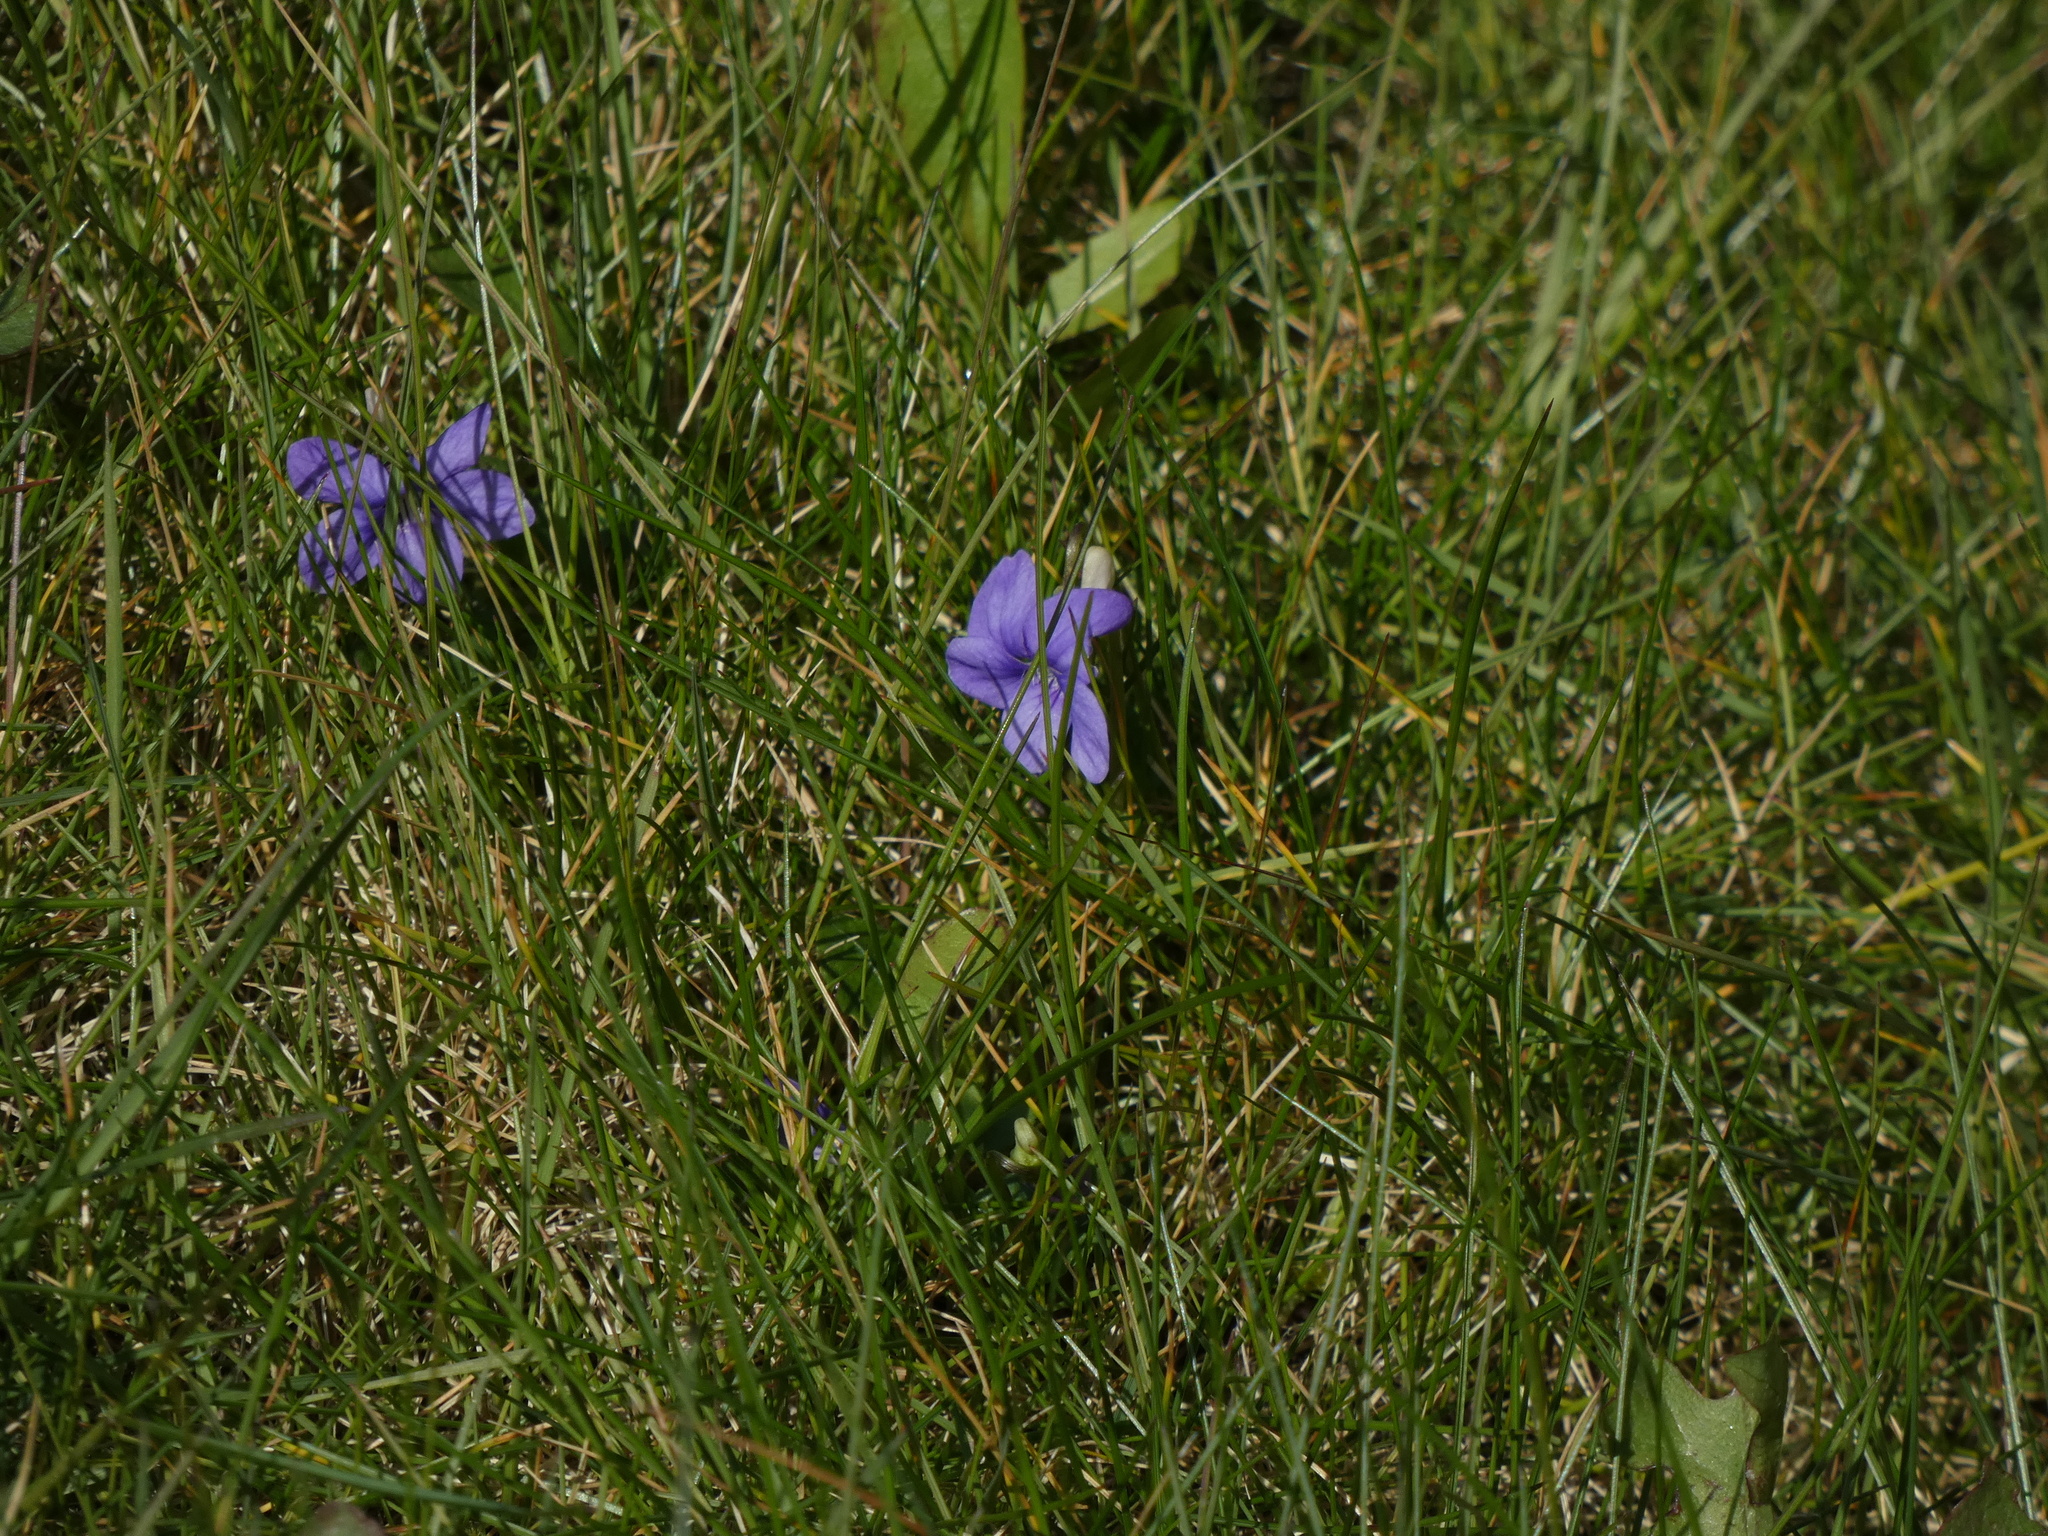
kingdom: Plantae
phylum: Tracheophyta
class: Magnoliopsida
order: Malpighiales
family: Violaceae
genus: Viola
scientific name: Viola riviniana
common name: Common dog-violet
